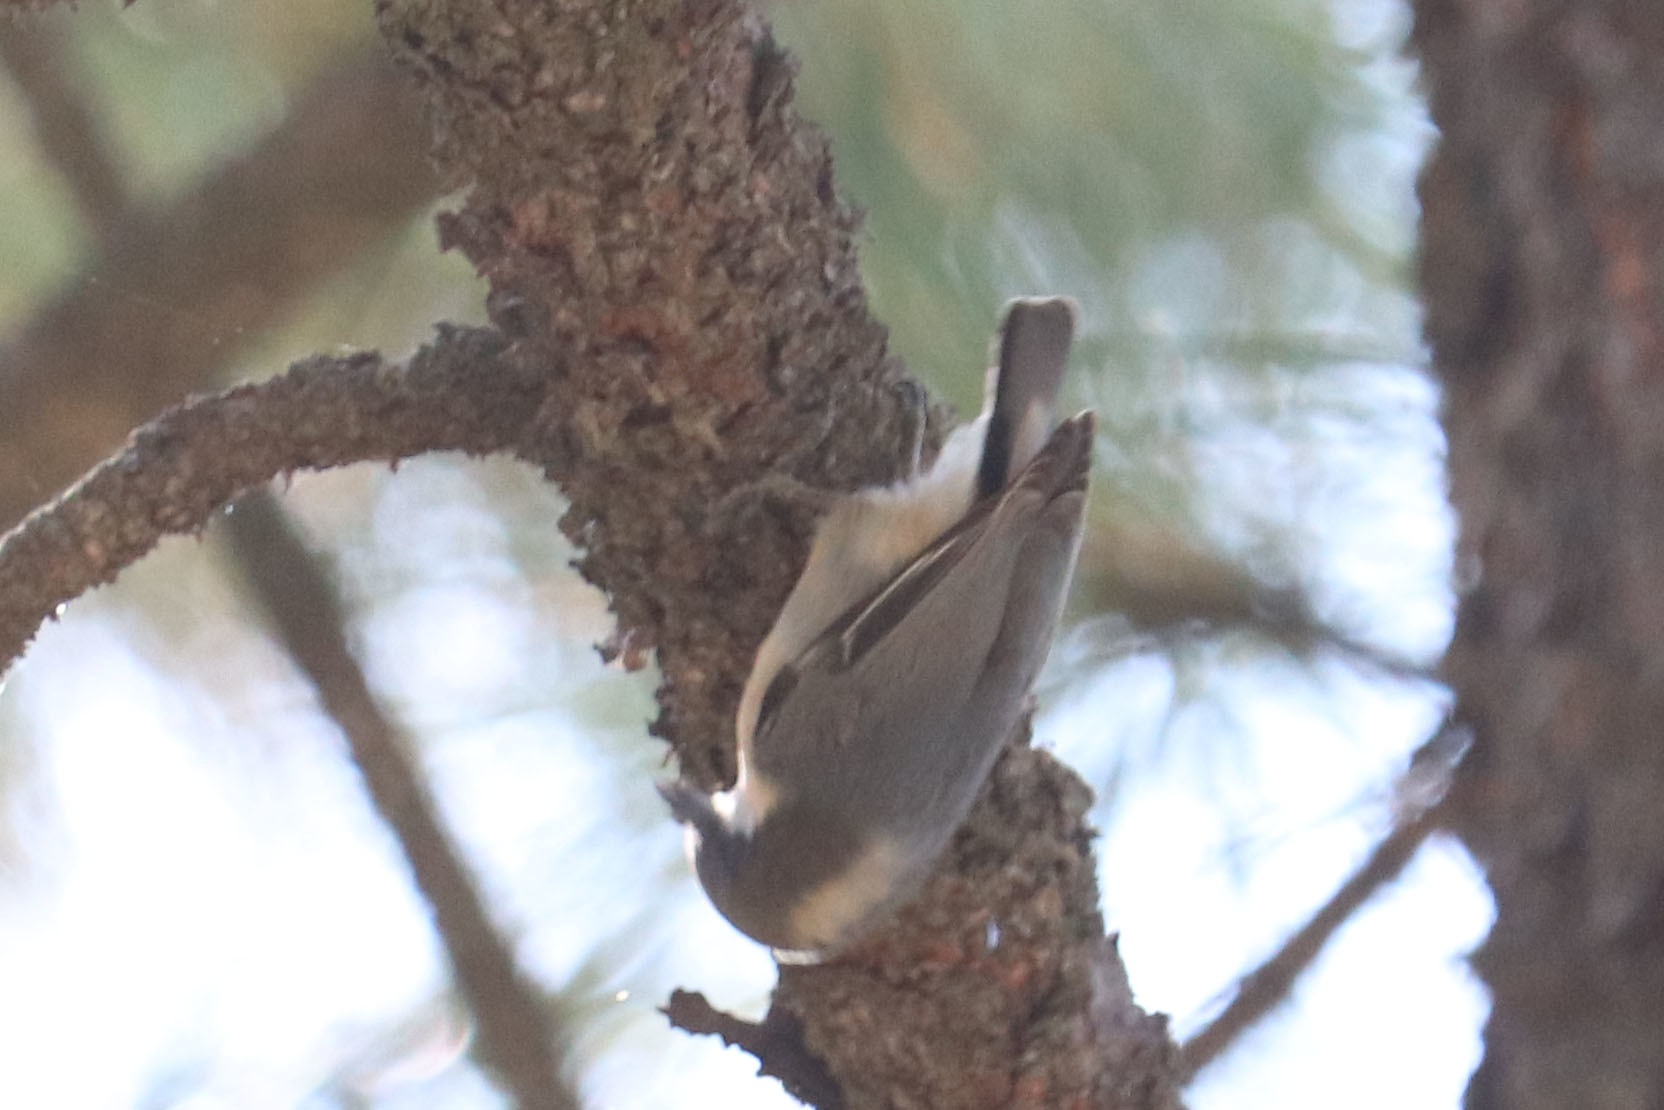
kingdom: Animalia
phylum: Chordata
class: Aves
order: Passeriformes
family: Sittidae
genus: Sitta
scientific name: Sitta pygmaea
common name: Pygmy nuthatch
